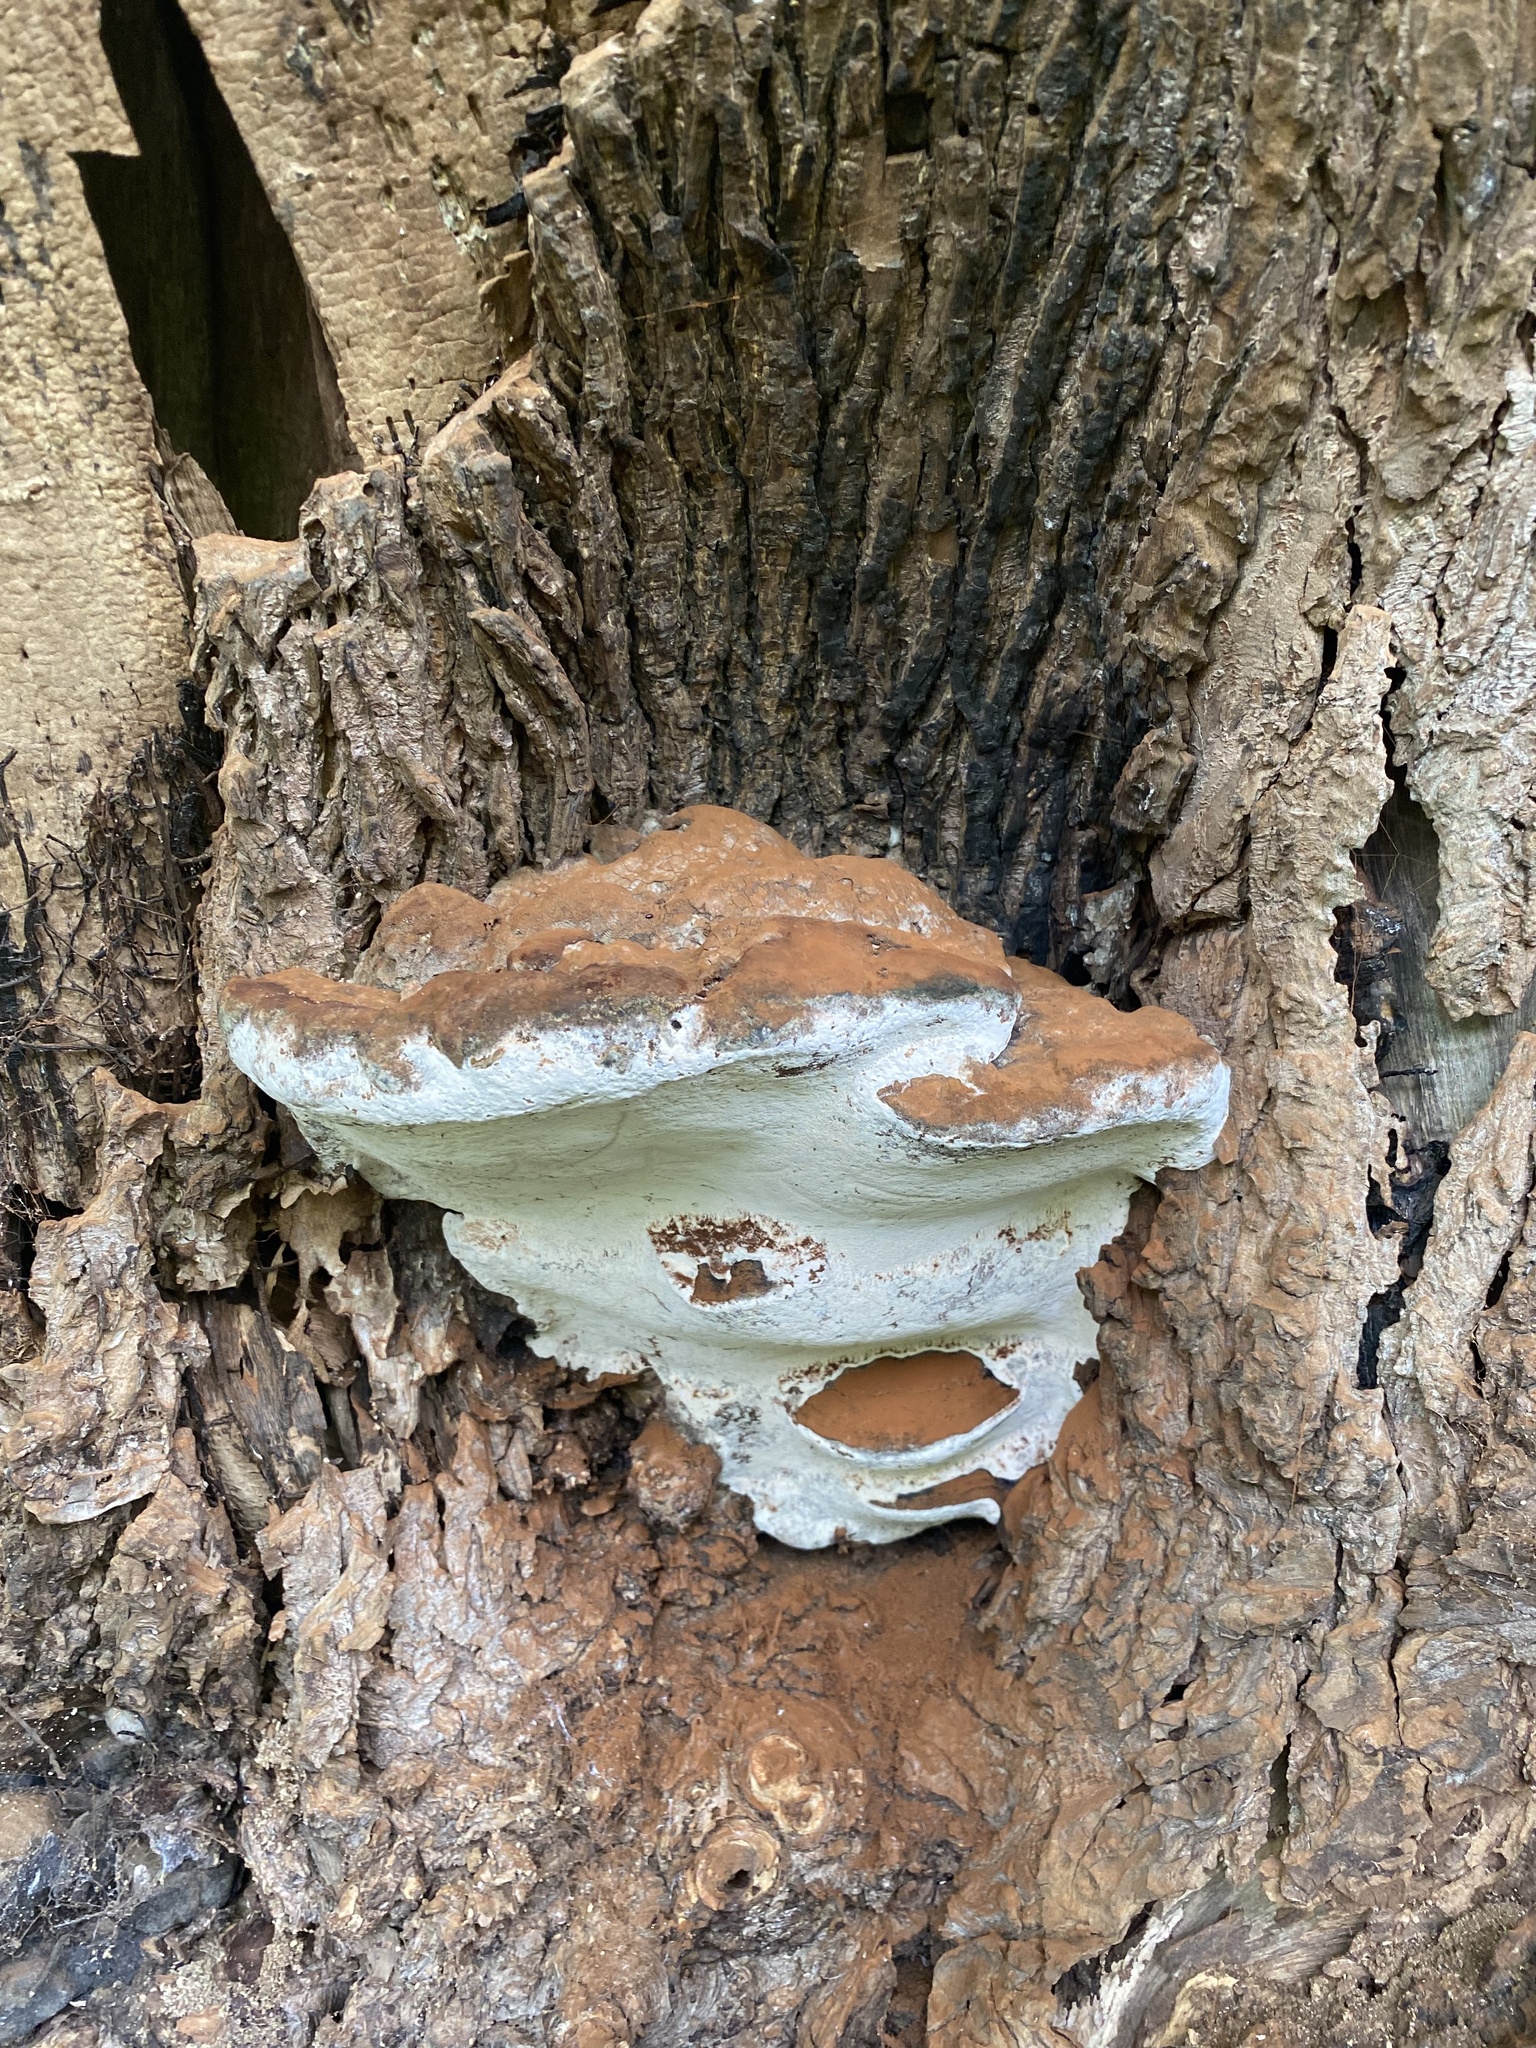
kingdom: Fungi
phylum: Basidiomycota
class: Agaricomycetes
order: Polyporales
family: Polyporaceae
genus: Ganoderma
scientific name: Ganoderma applanatum
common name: Artist's bracket
